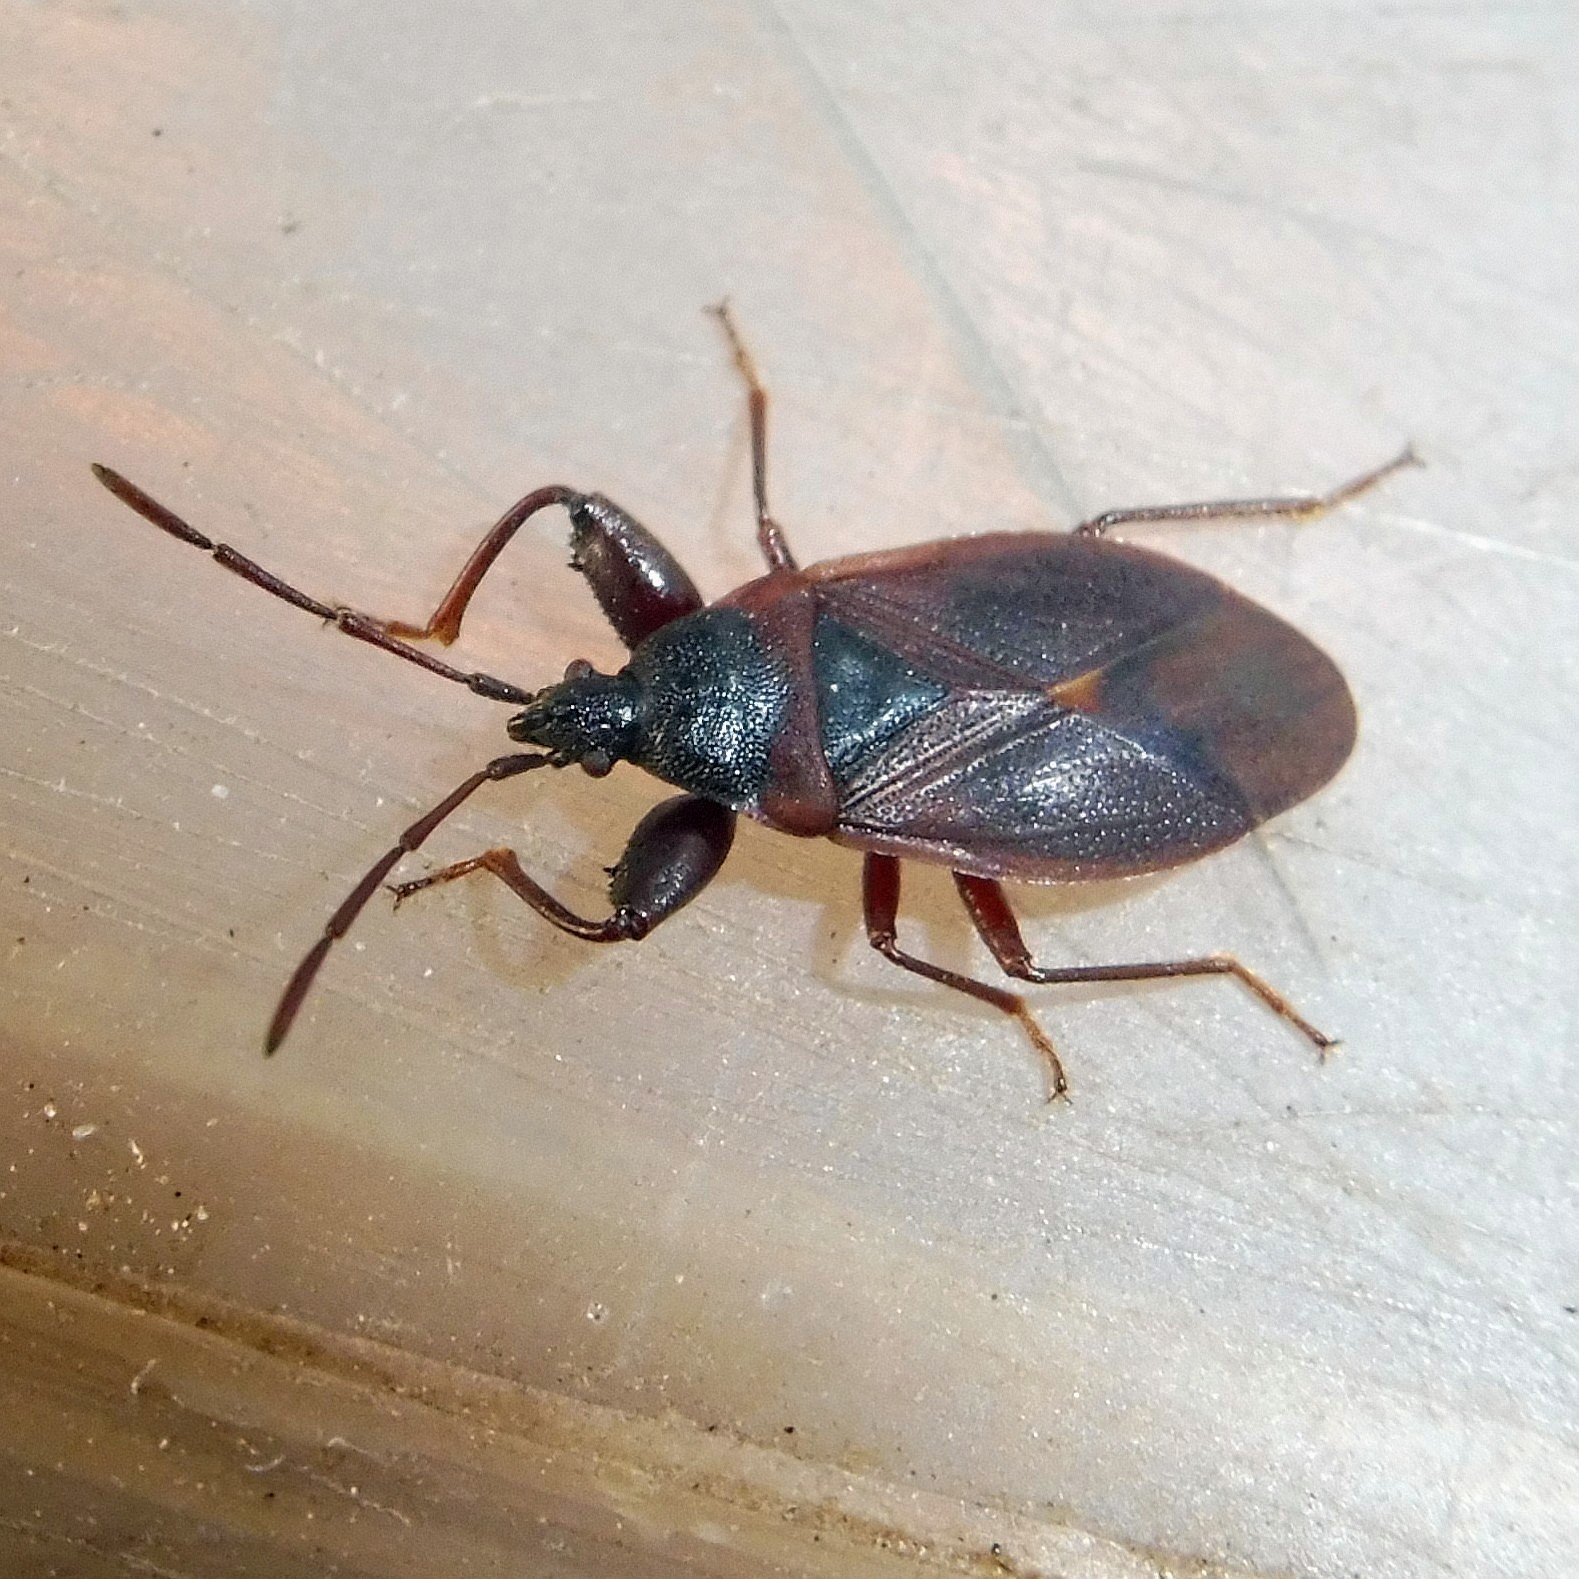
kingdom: Animalia
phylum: Arthropoda
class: Insecta
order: Hemiptera
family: Rhyparochromidae
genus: Gastrodes
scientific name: Gastrodes grossipes
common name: Pine cone bug
